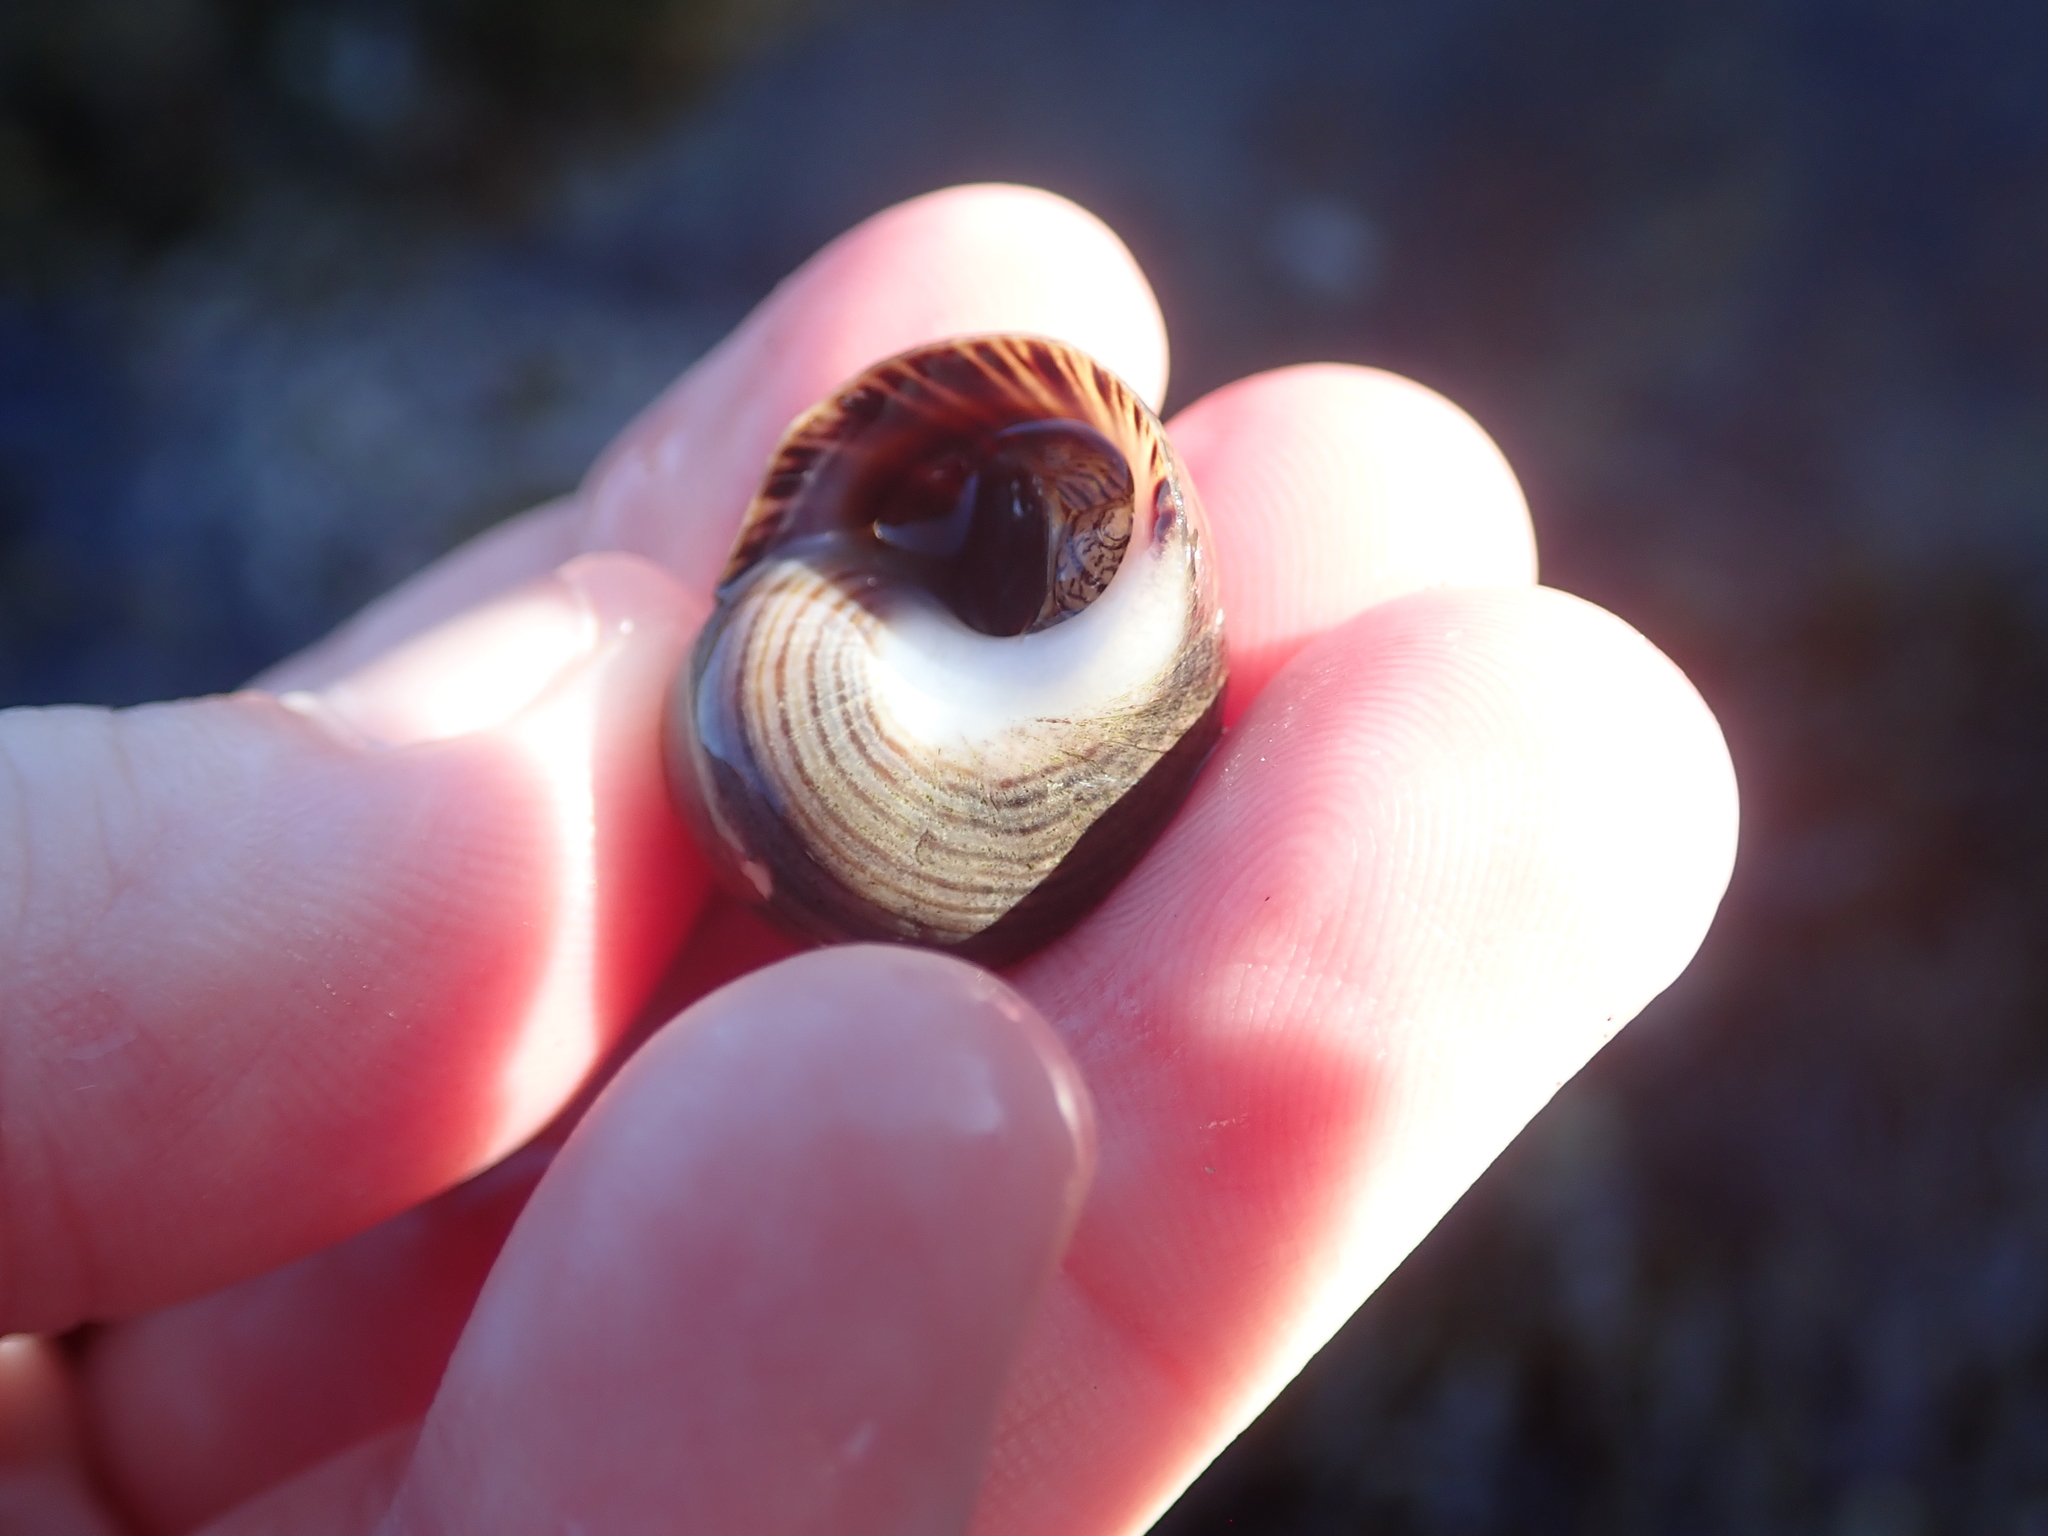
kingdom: Animalia
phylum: Mollusca
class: Gastropoda
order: Littorinimorpha
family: Littorinidae
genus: Littorina
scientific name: Littorina littorea
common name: Common periwinkle
